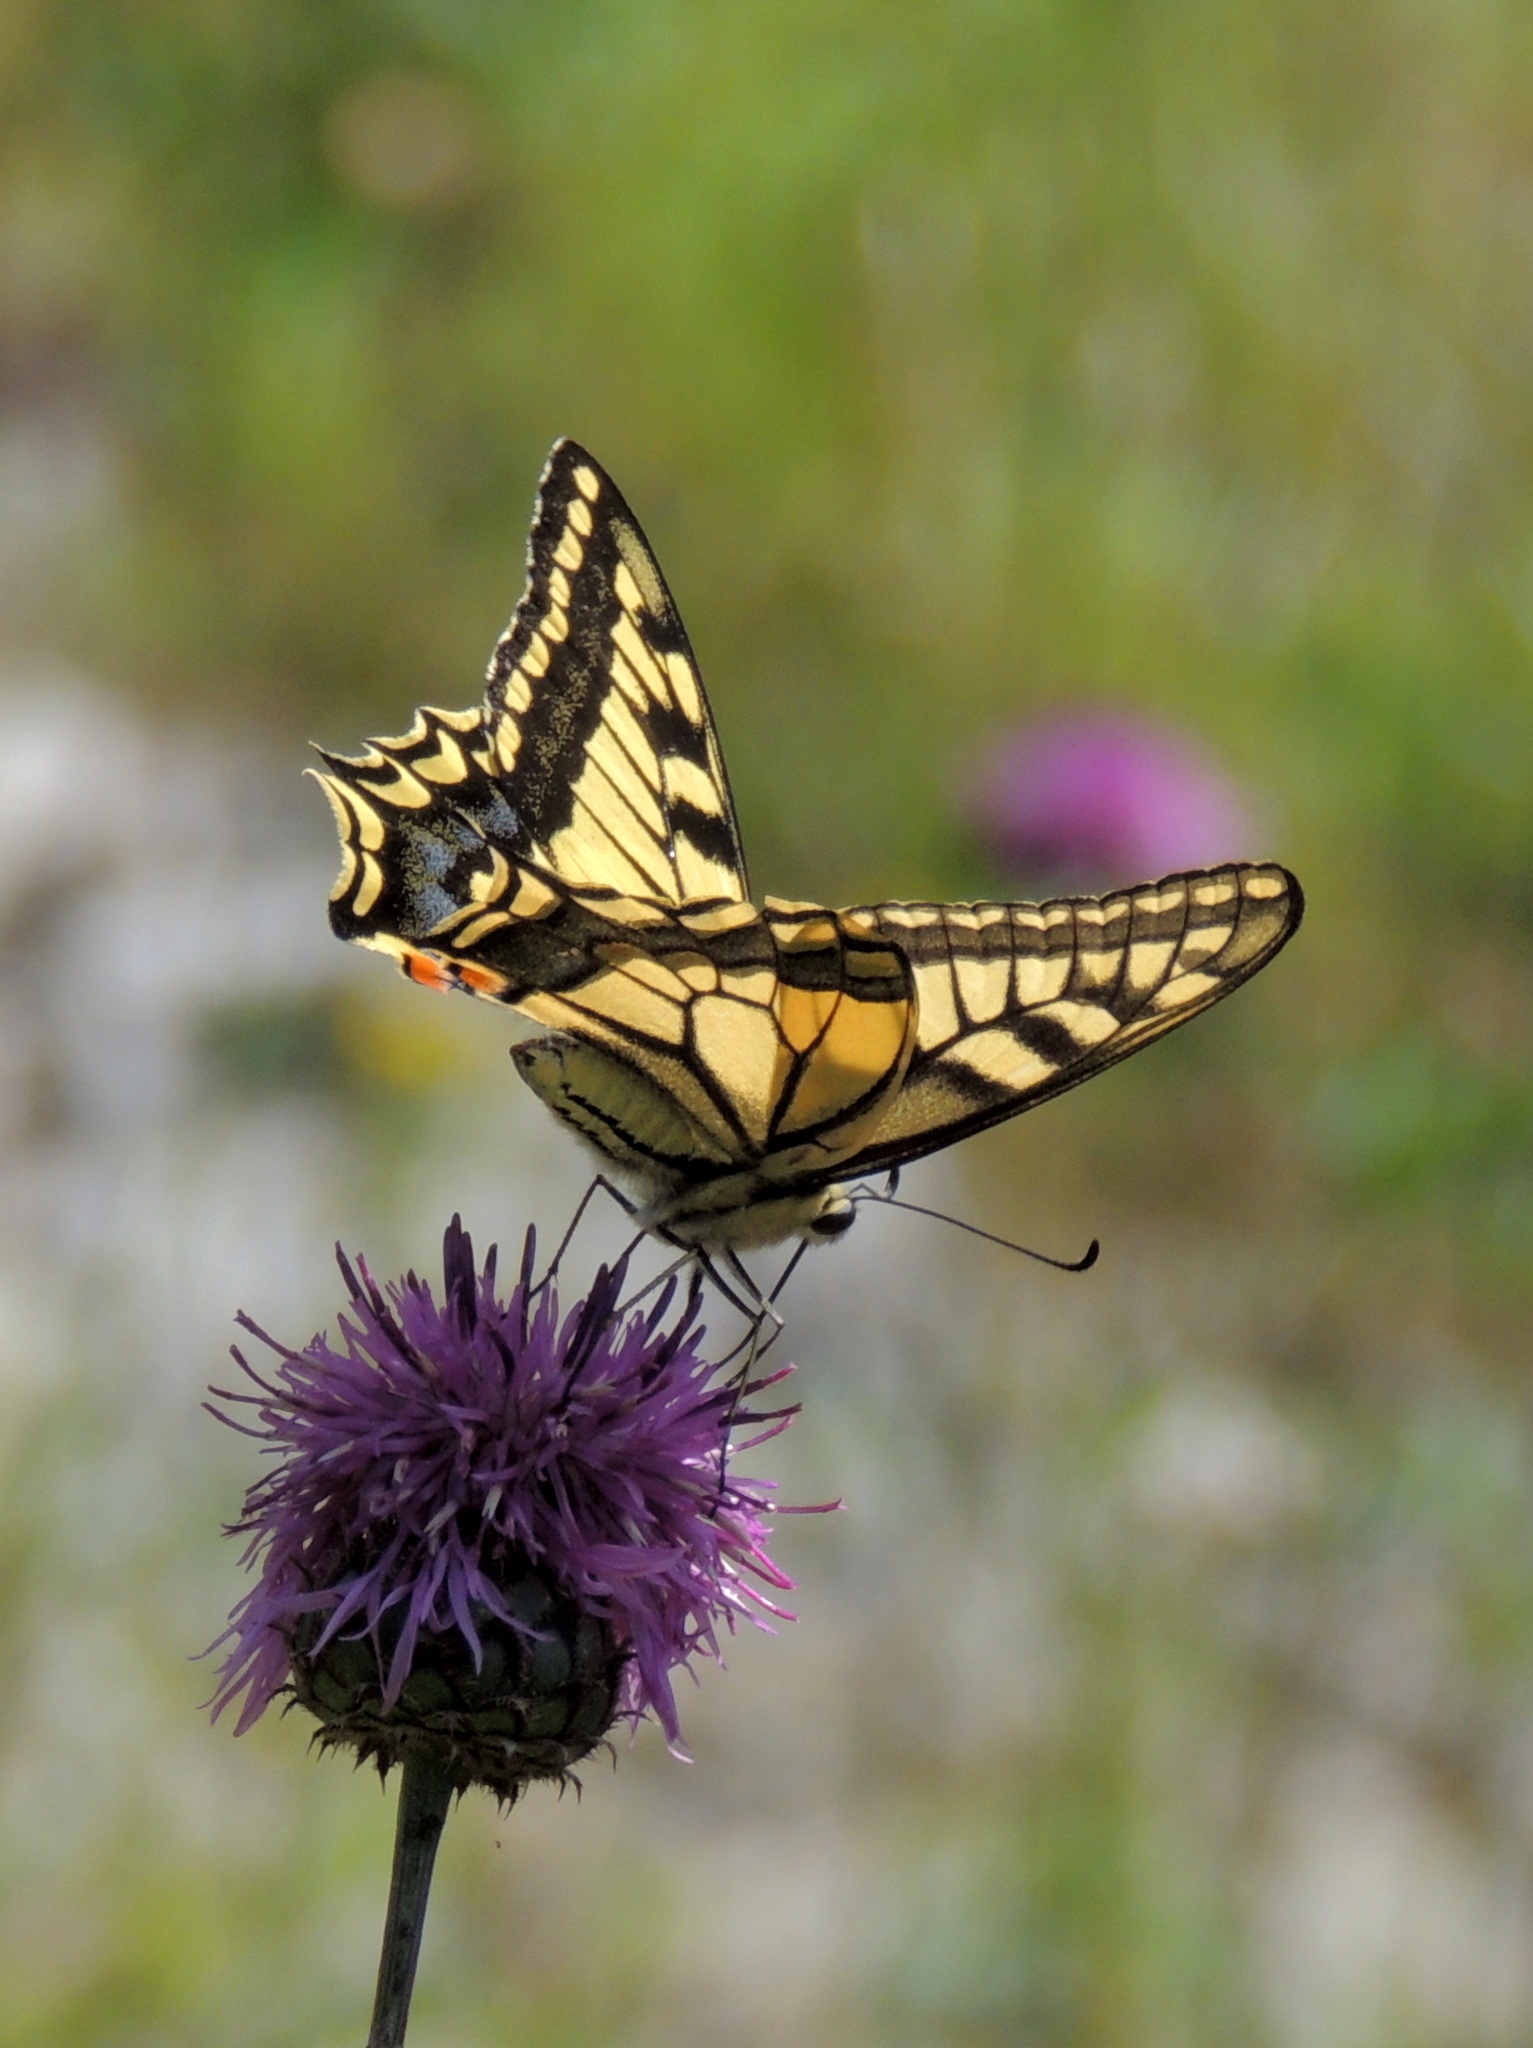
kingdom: Animalia
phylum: Arthropoda
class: Insecta
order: Lepidoptera
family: Papilionidae
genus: Papilio
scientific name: Papilio machaon
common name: Swallowtail
